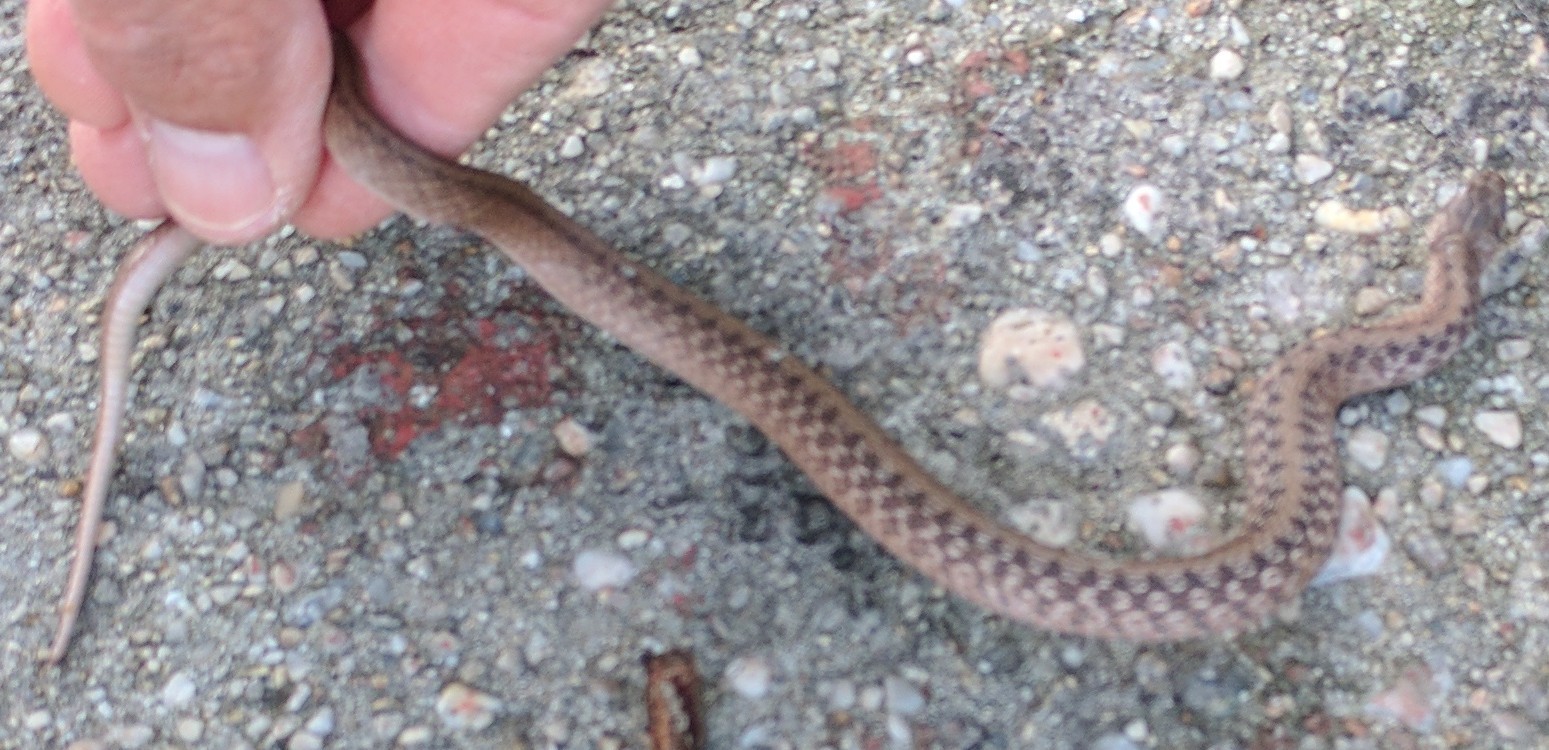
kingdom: Animalia
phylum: Chordata
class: Squamata
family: Colubridae
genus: Storeria
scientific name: Storeria dekayi
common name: (dekay’s) brown snake
